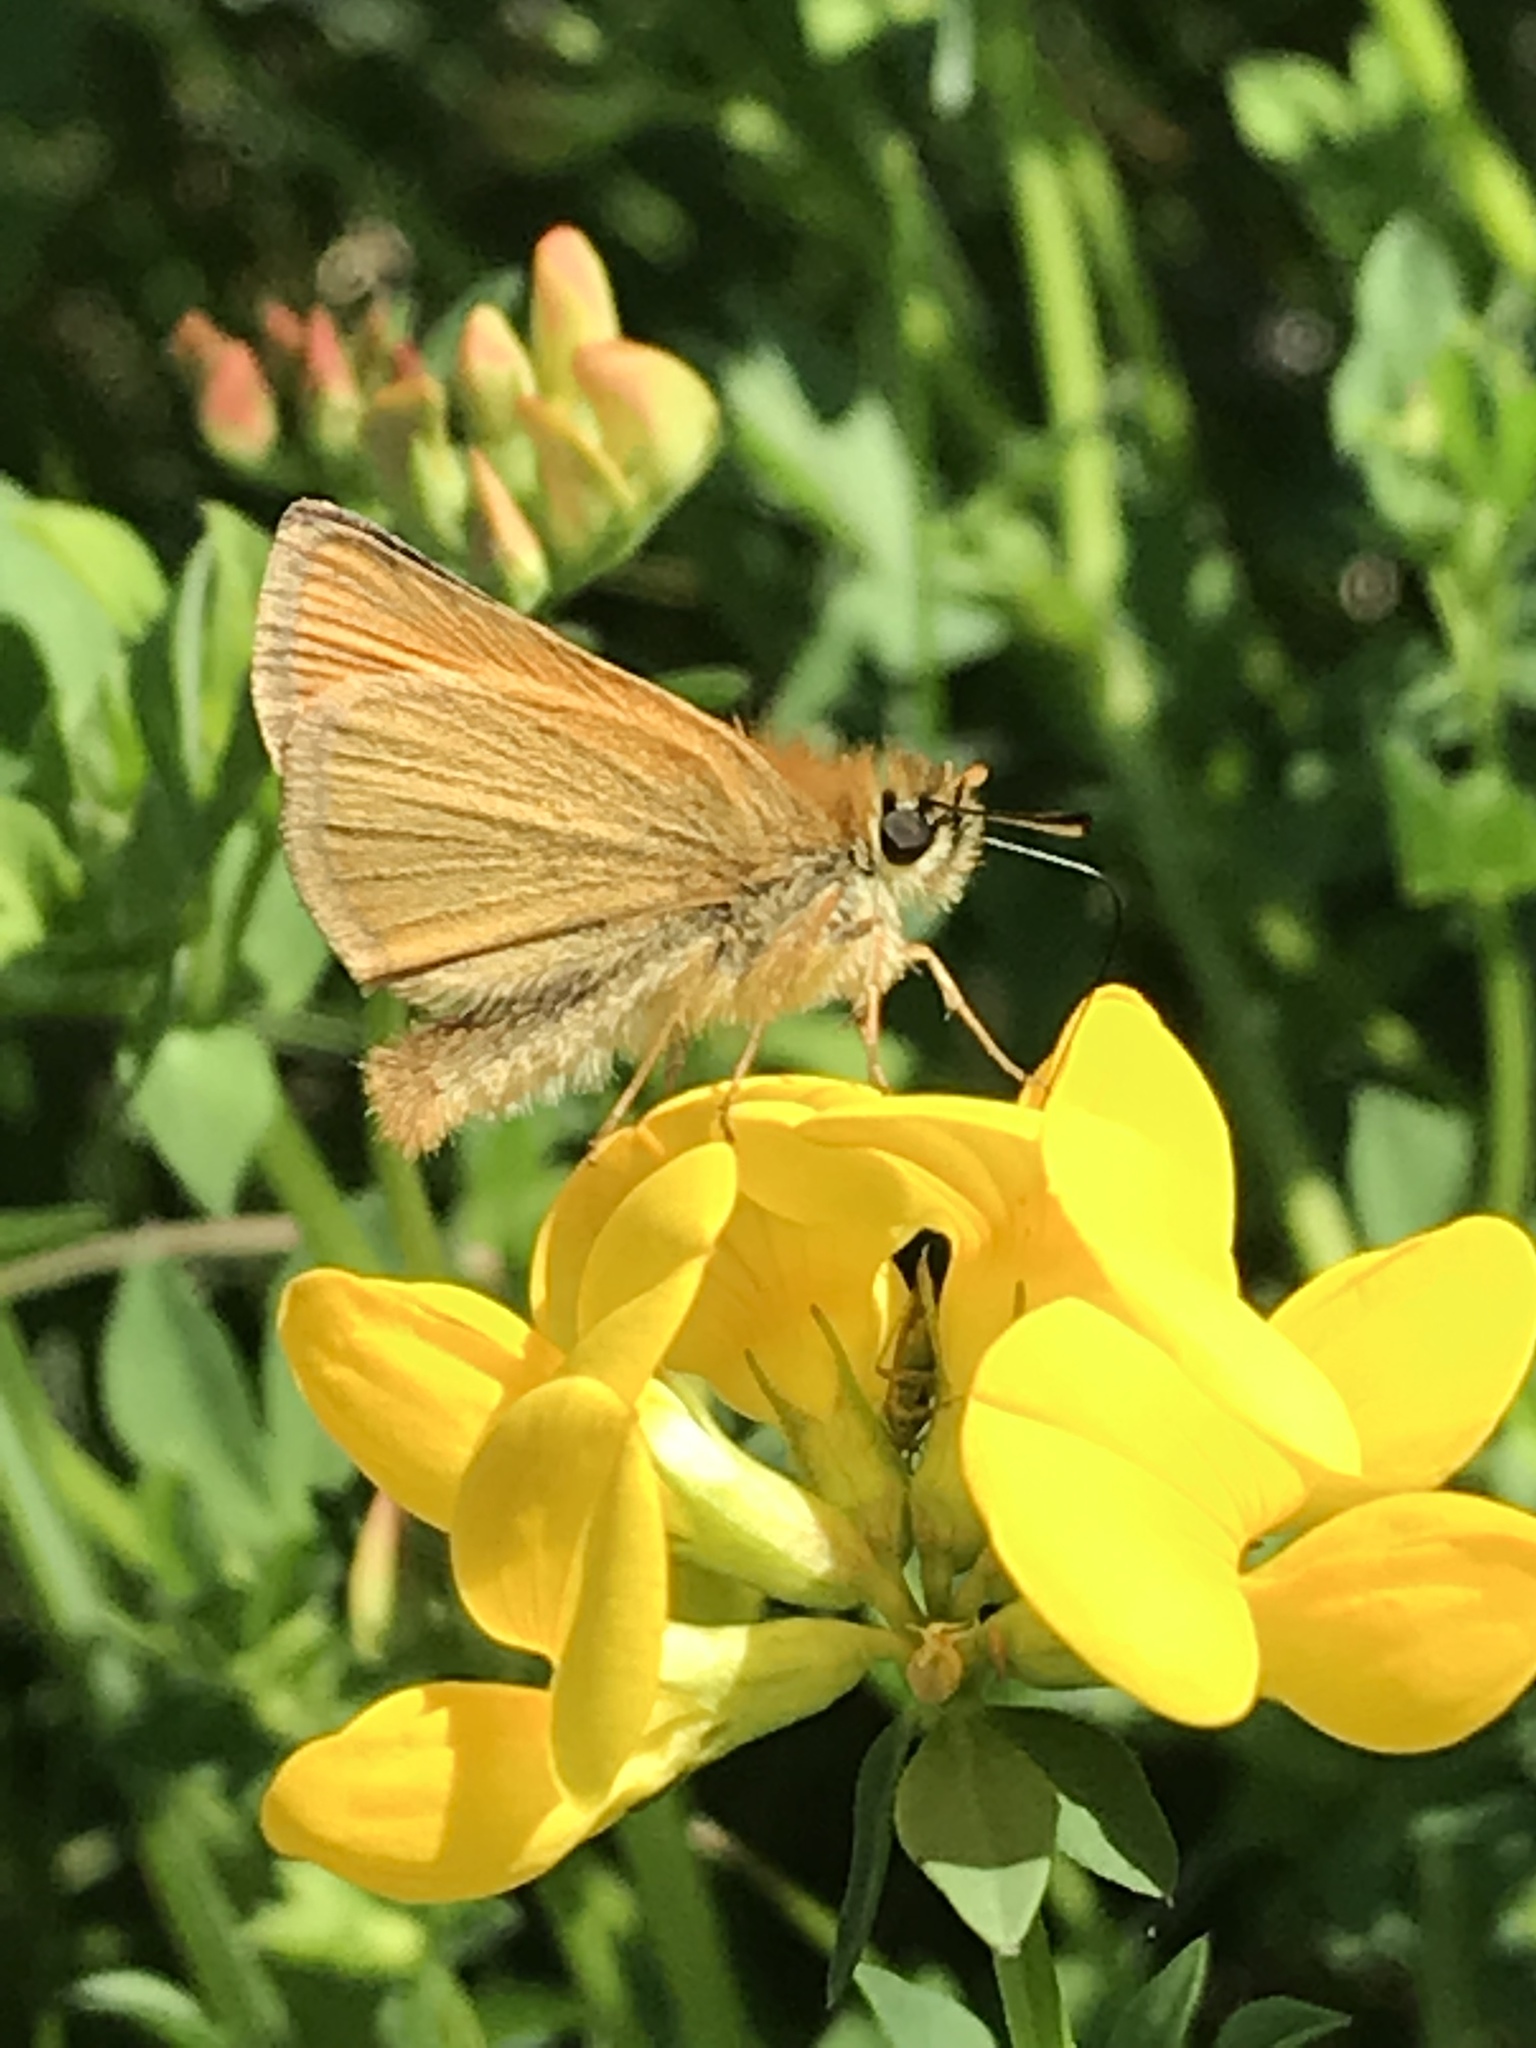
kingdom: Animalia
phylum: Arthropoda
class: Insecta
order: Lepidoptera
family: Hesperiidae
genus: Thymelicus
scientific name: Thymelicus lineola
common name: Essex skipper
